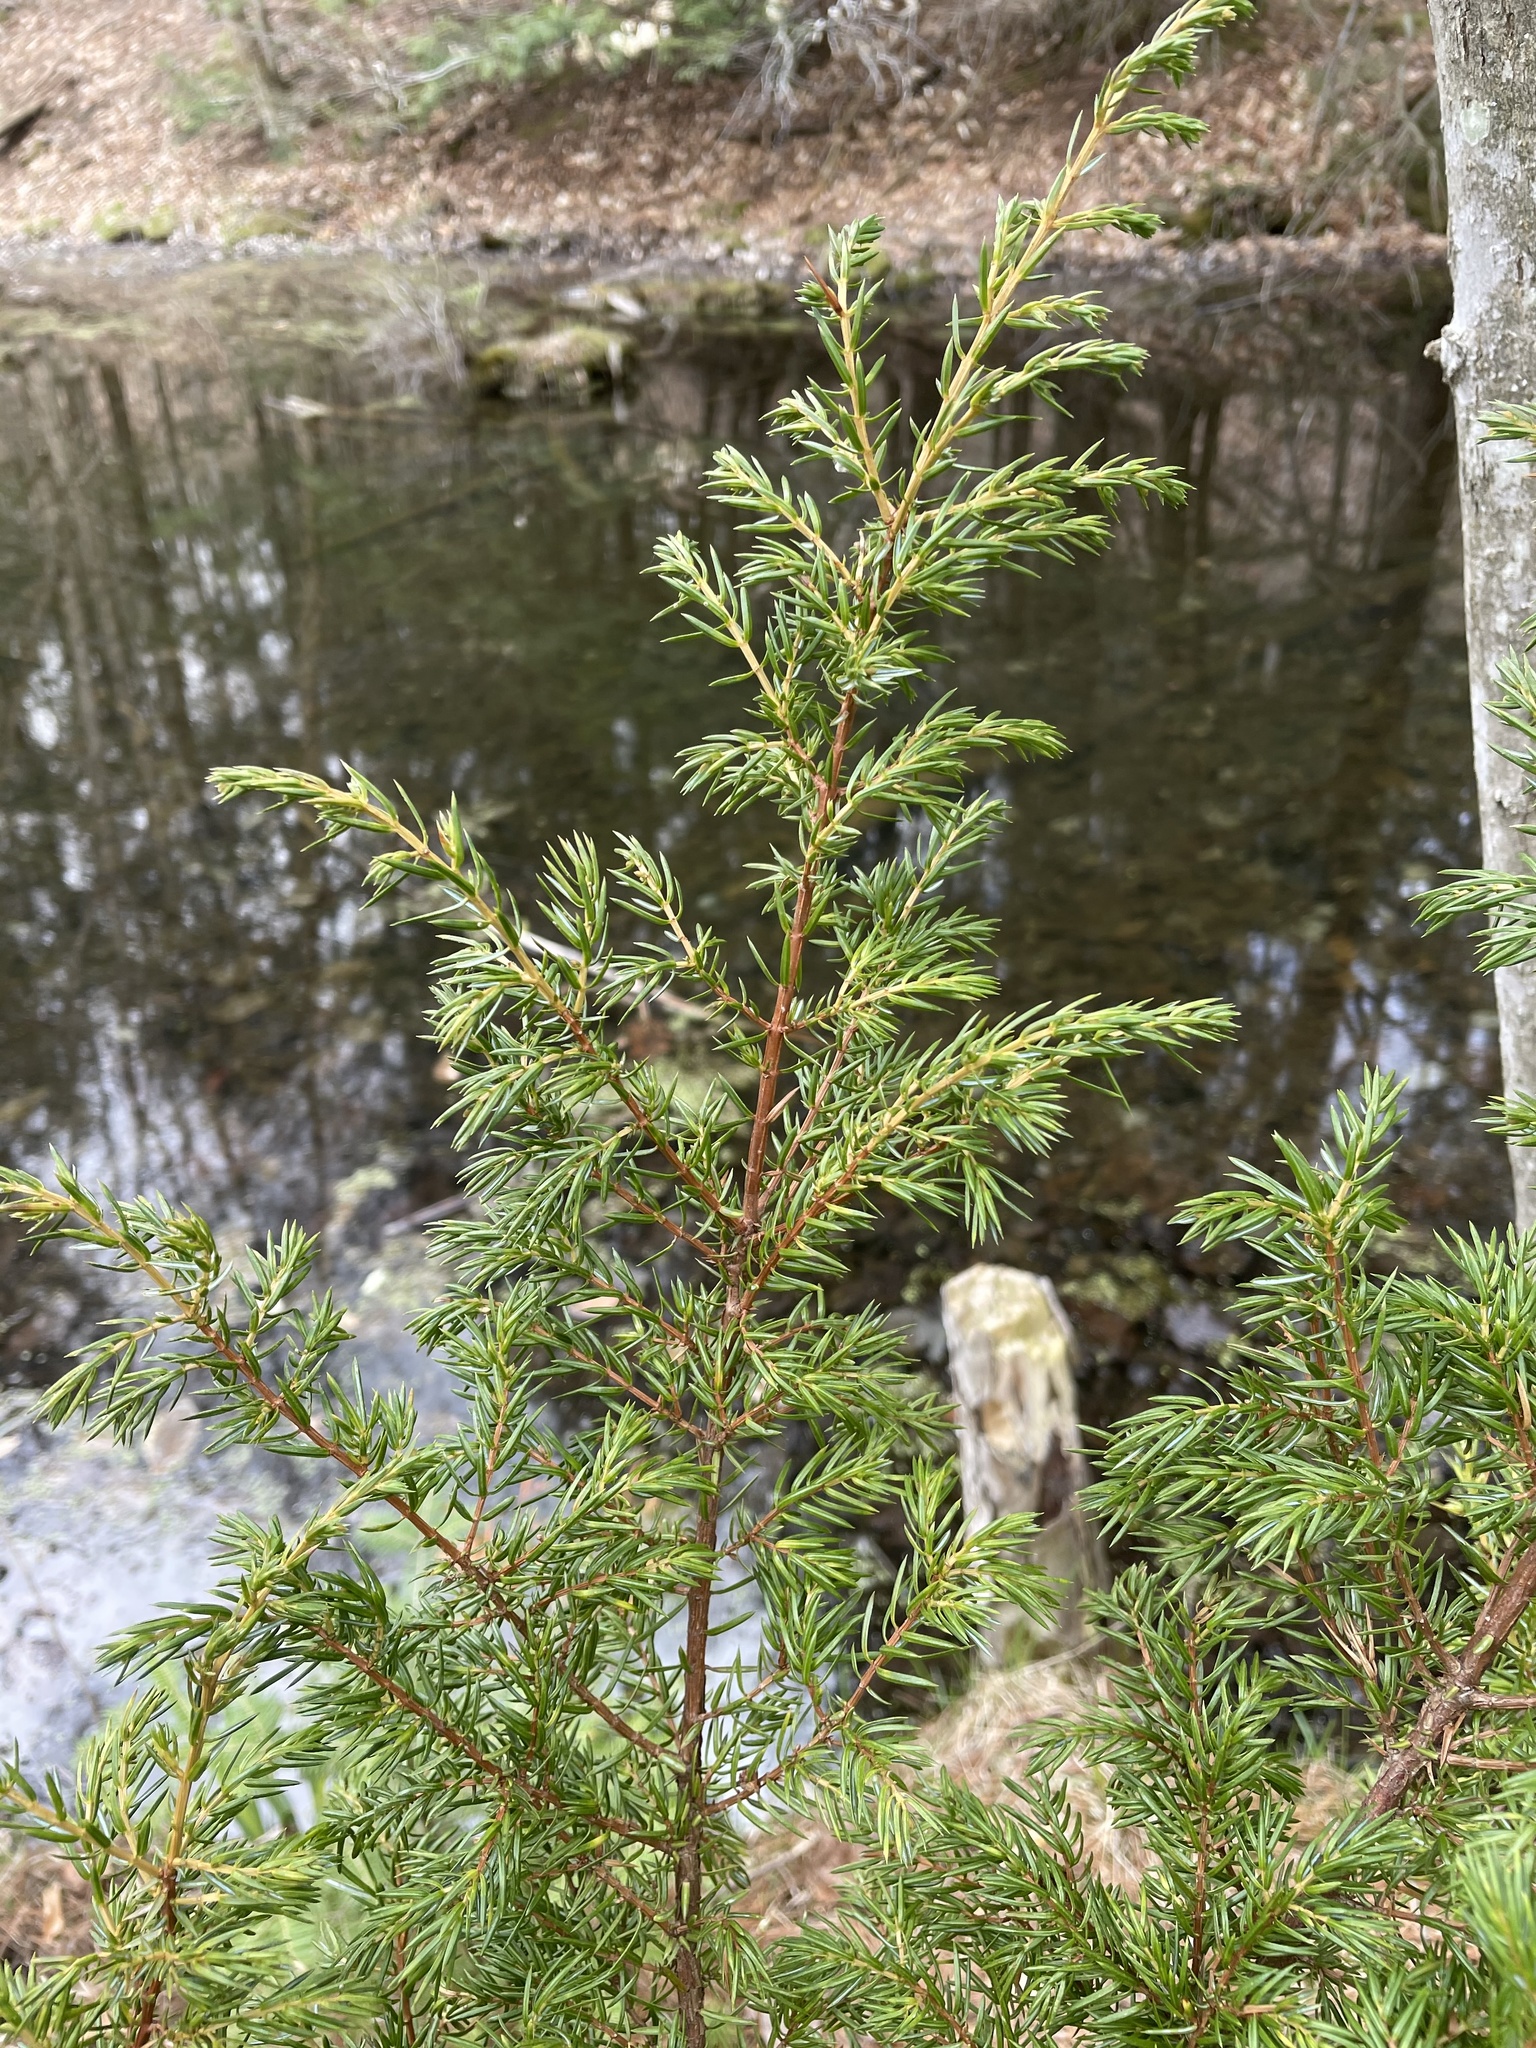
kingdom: Plantae
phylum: Tracheophyta
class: Pinopsida
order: Pinales
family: Cupressaceae
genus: Juniperus
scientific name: Juniperus communis
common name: Common juniper
